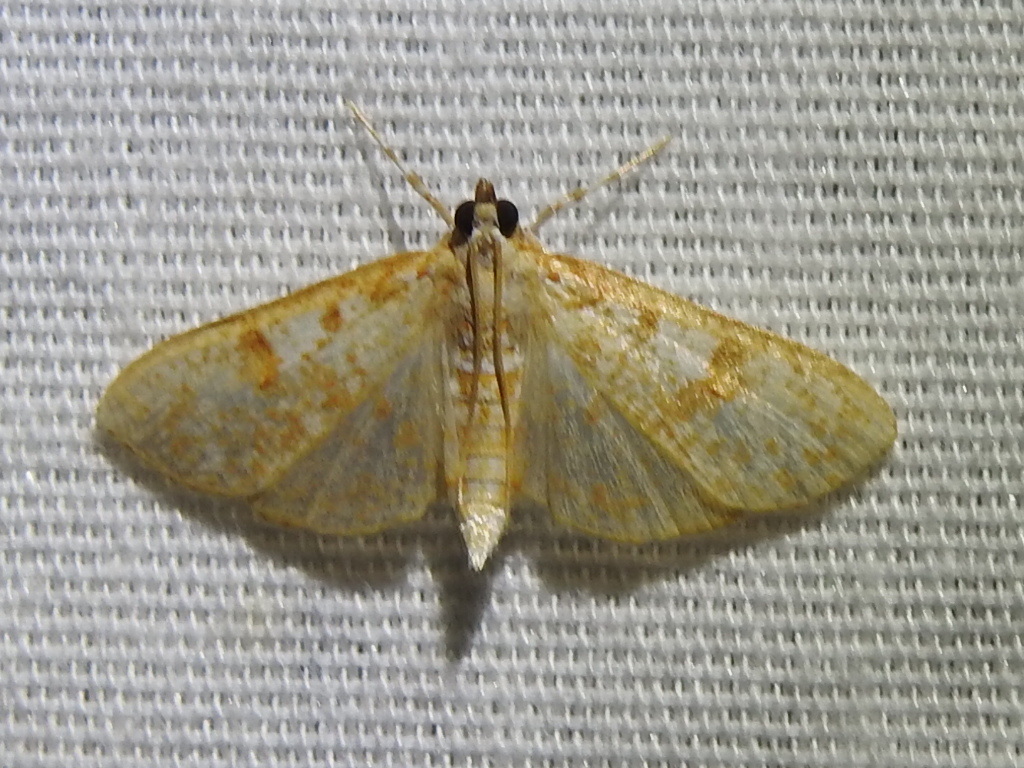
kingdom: Animalia
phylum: Arthropoda
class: Insecta
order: Lepidoptera
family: Crambidae
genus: Palpita
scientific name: Palpita freemanalis
